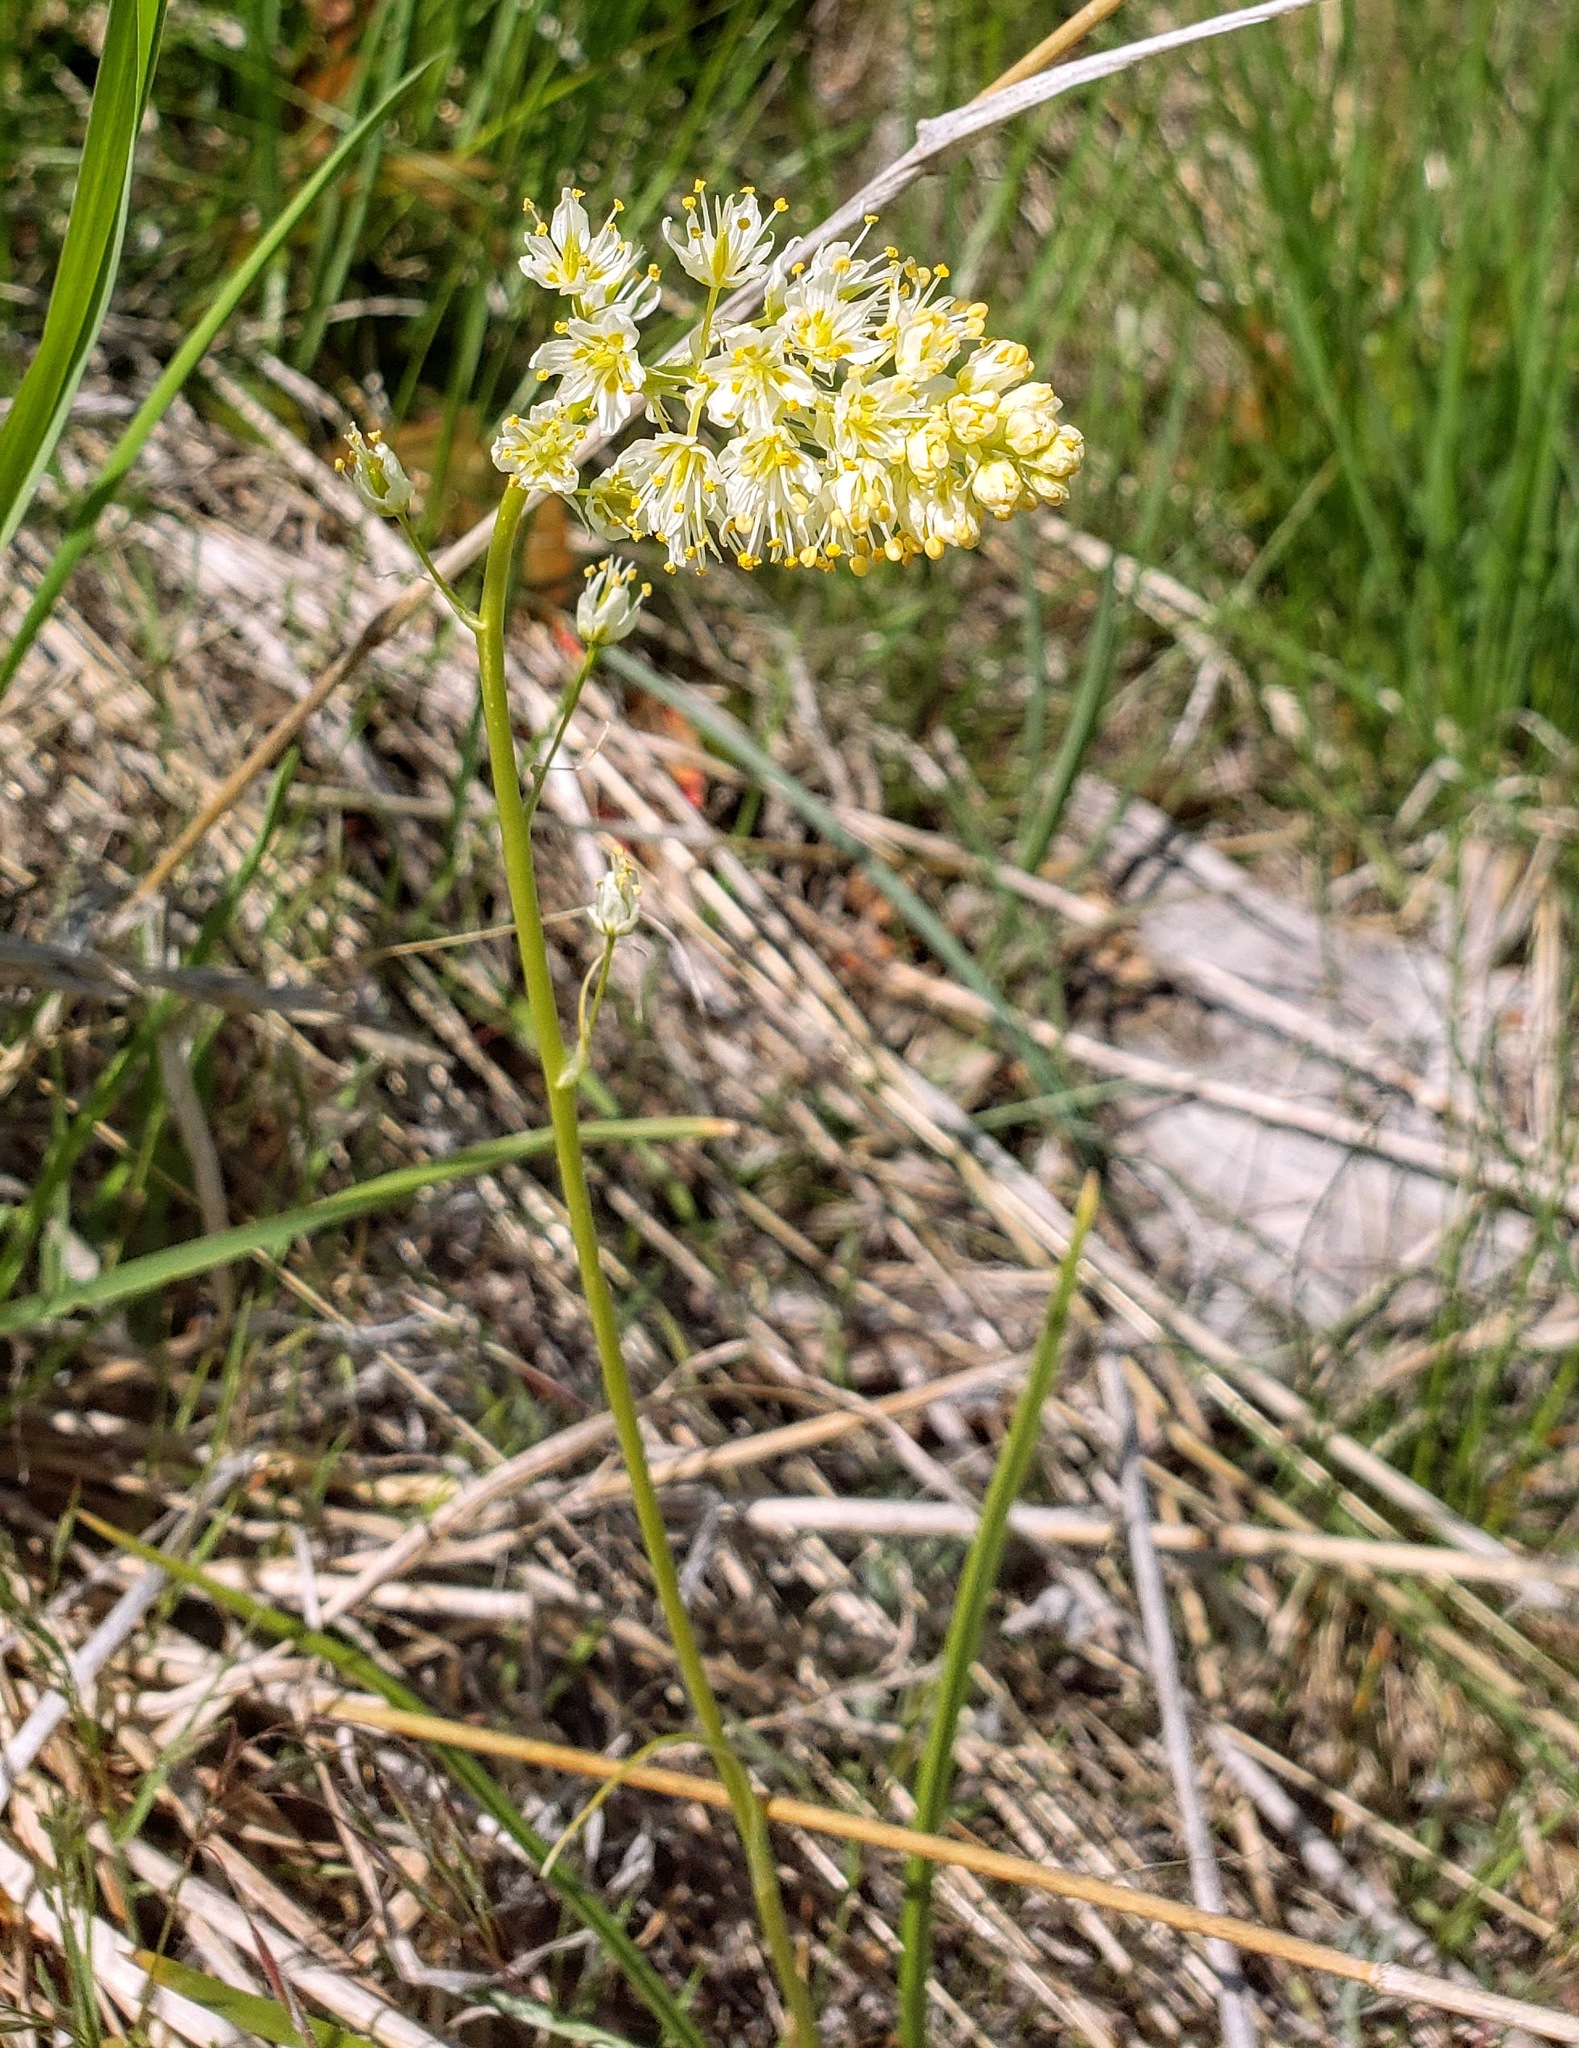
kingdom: Plantae
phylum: Tracheophyta
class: Liliopsida
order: Liliales
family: Melanthiaceae
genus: Toxicoscordion
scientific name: Toxicoscordion venenosum
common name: Meadow death camas
